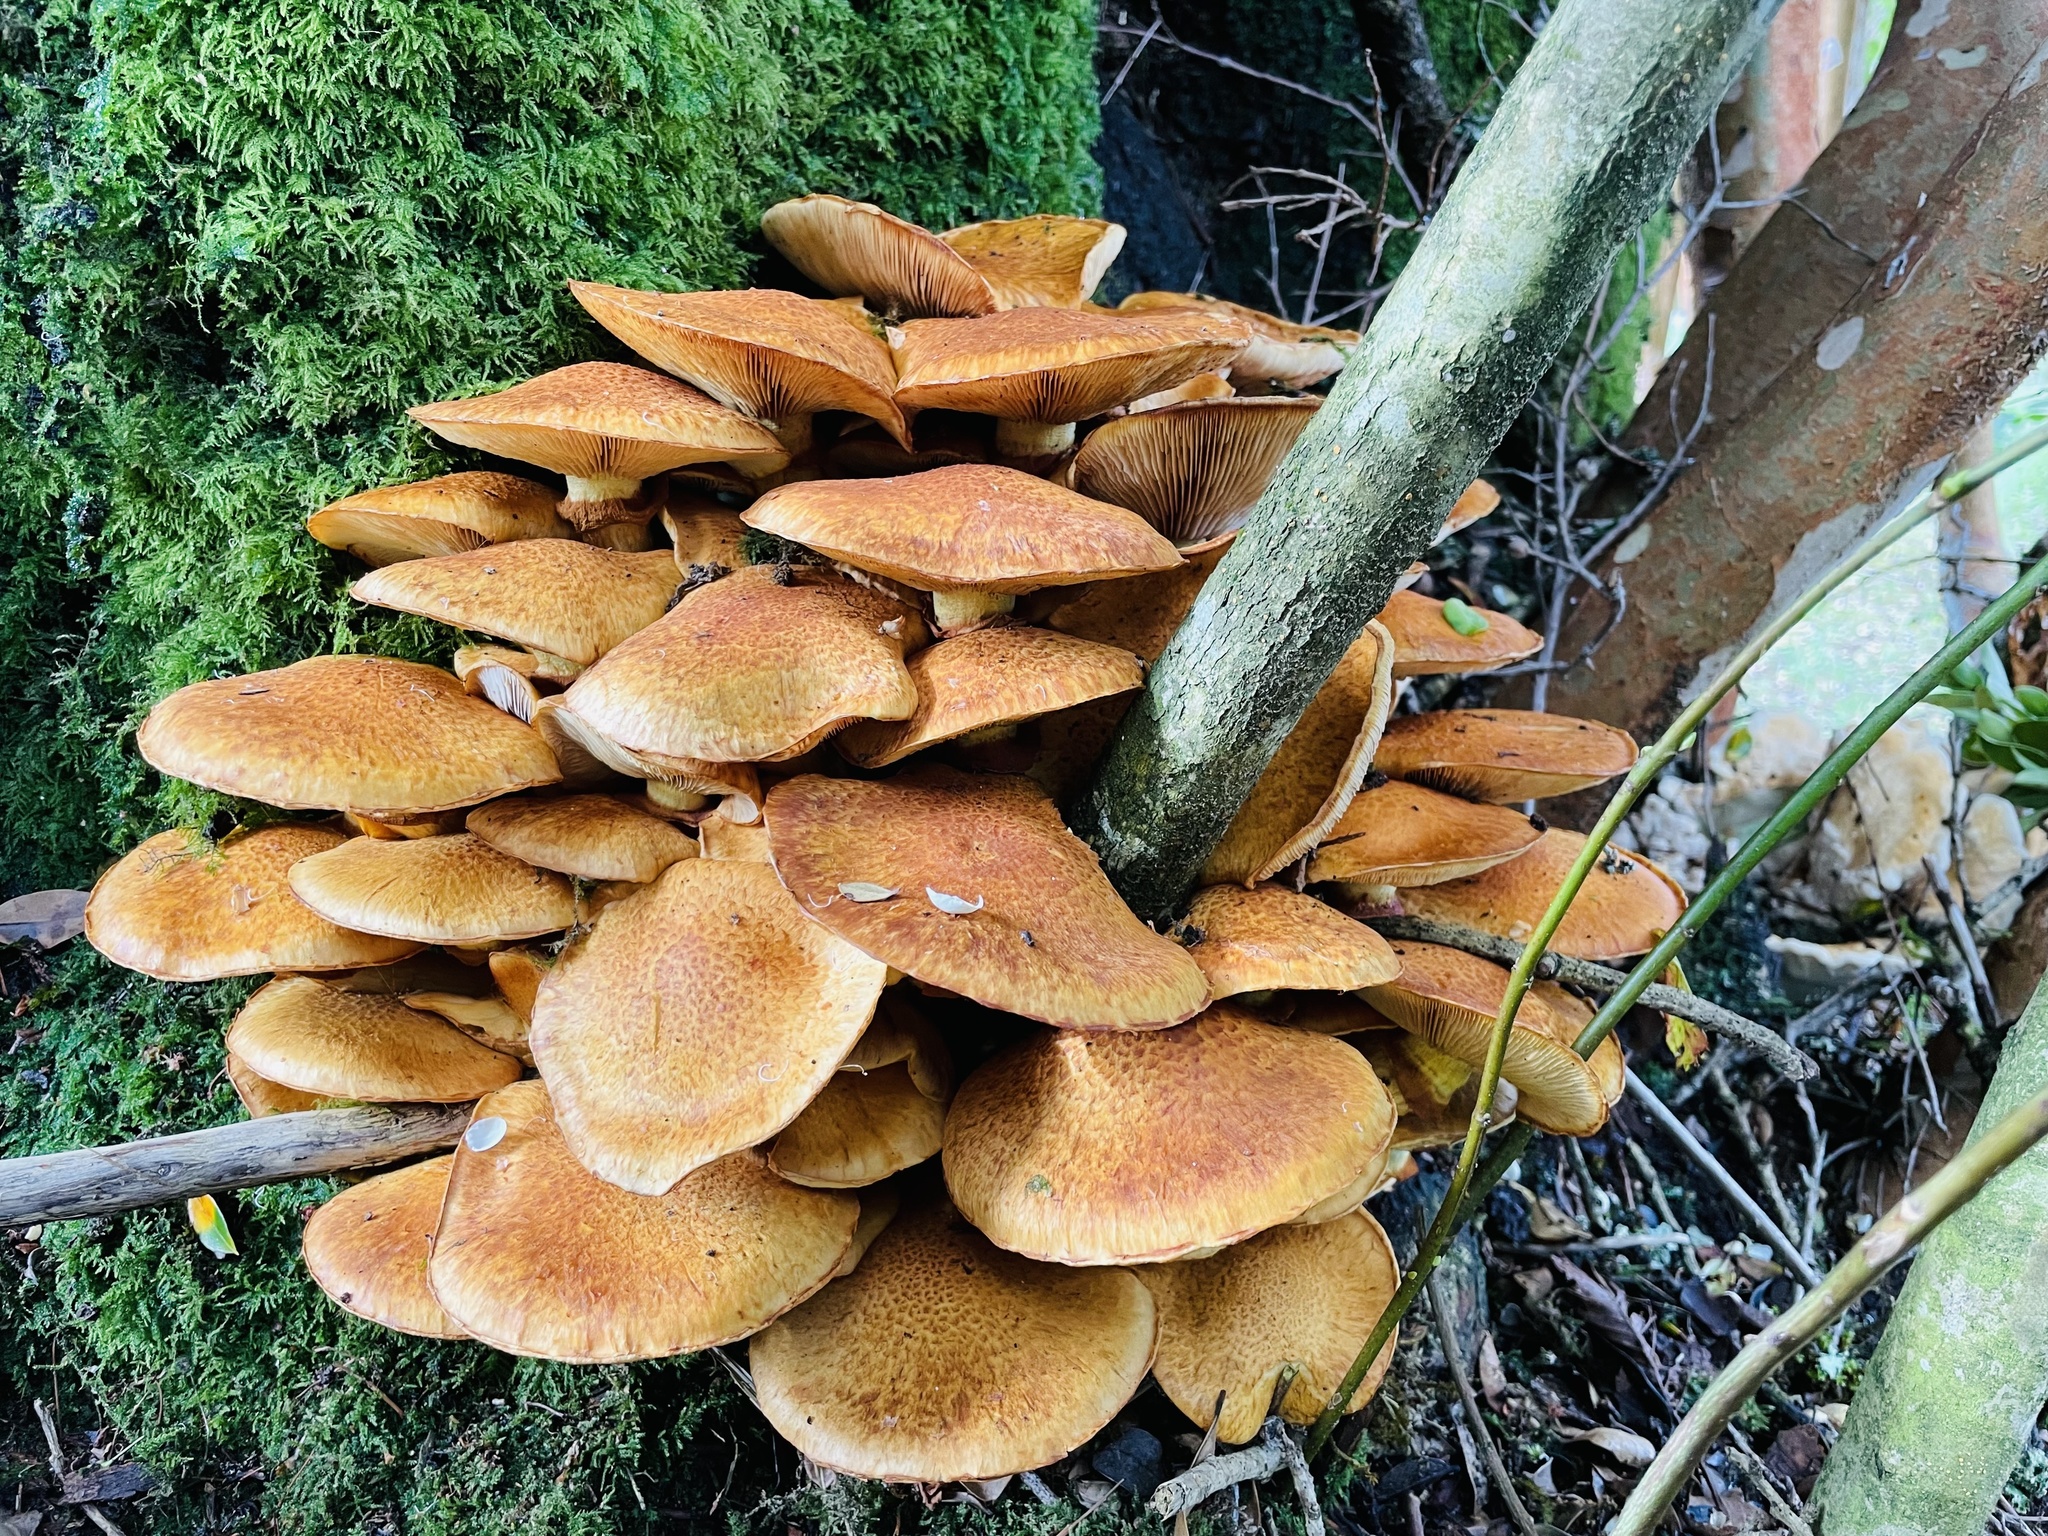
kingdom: Fungi
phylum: Basidiomycota
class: Agaricomycetes
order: Agaricales
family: Hymenogastraceae
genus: Gymnopilus
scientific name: Gymnopilus junonius
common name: Spectacular rustgill
